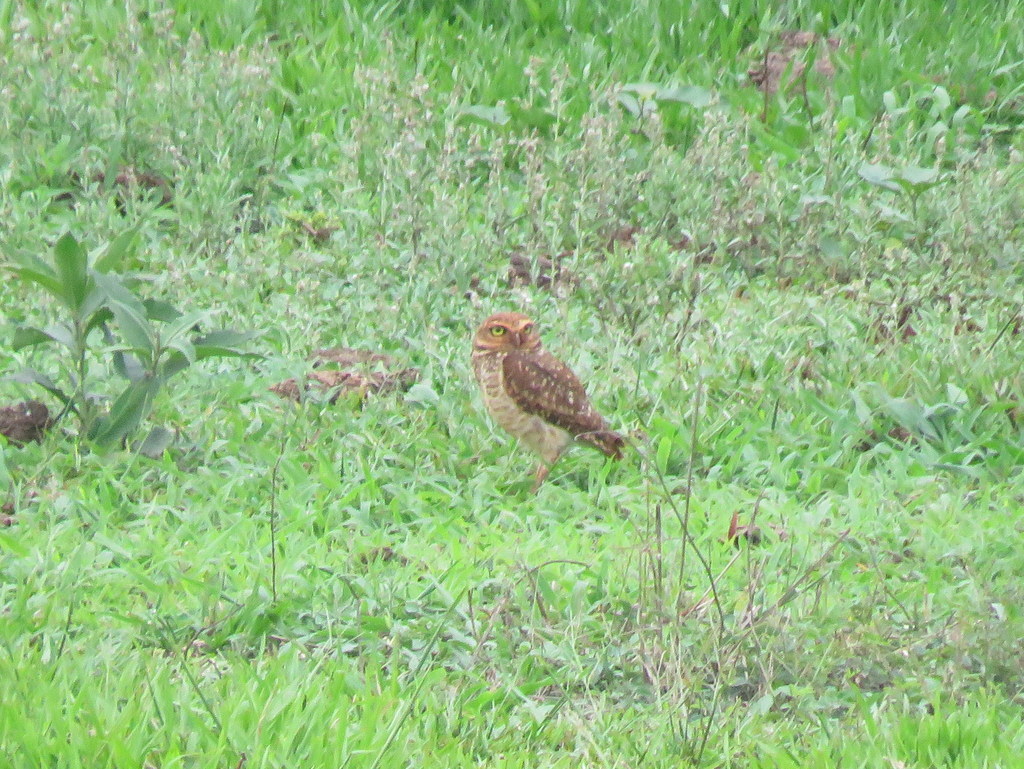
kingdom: Animalia
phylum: Chordata
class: Aves
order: Strigiformes
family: Strigidae
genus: Athene
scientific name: Athene cunicularia
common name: Burrowing owl
